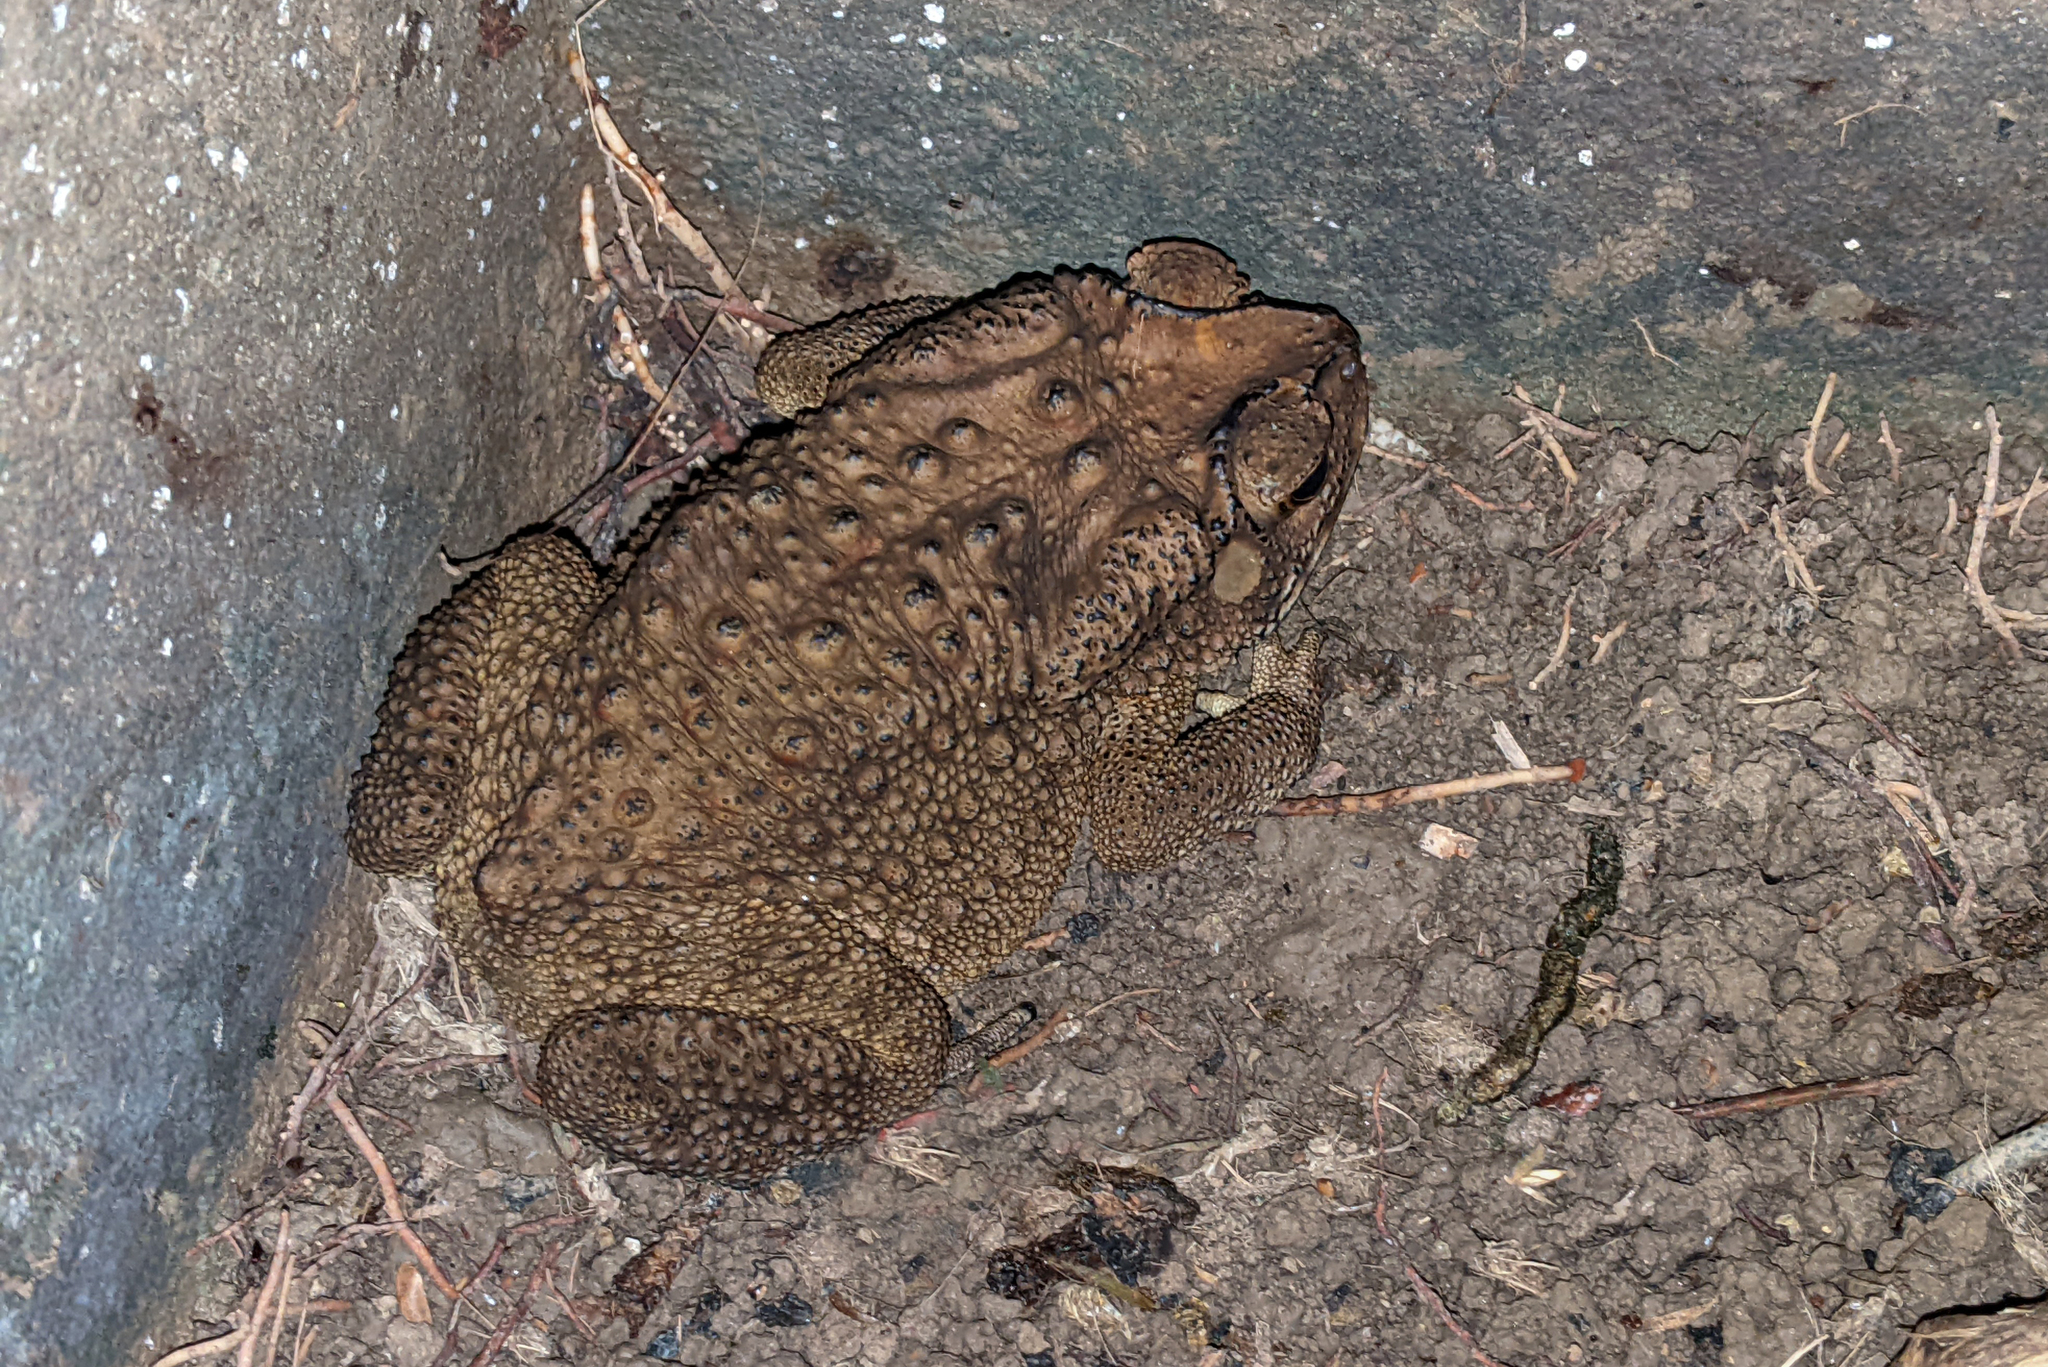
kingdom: Animalia
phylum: Chordata
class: Amphibia
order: Anura
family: Bufonidae
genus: Duttaphrynus
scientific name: Duttaphrynus melanostictus
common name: Common sunda toad
